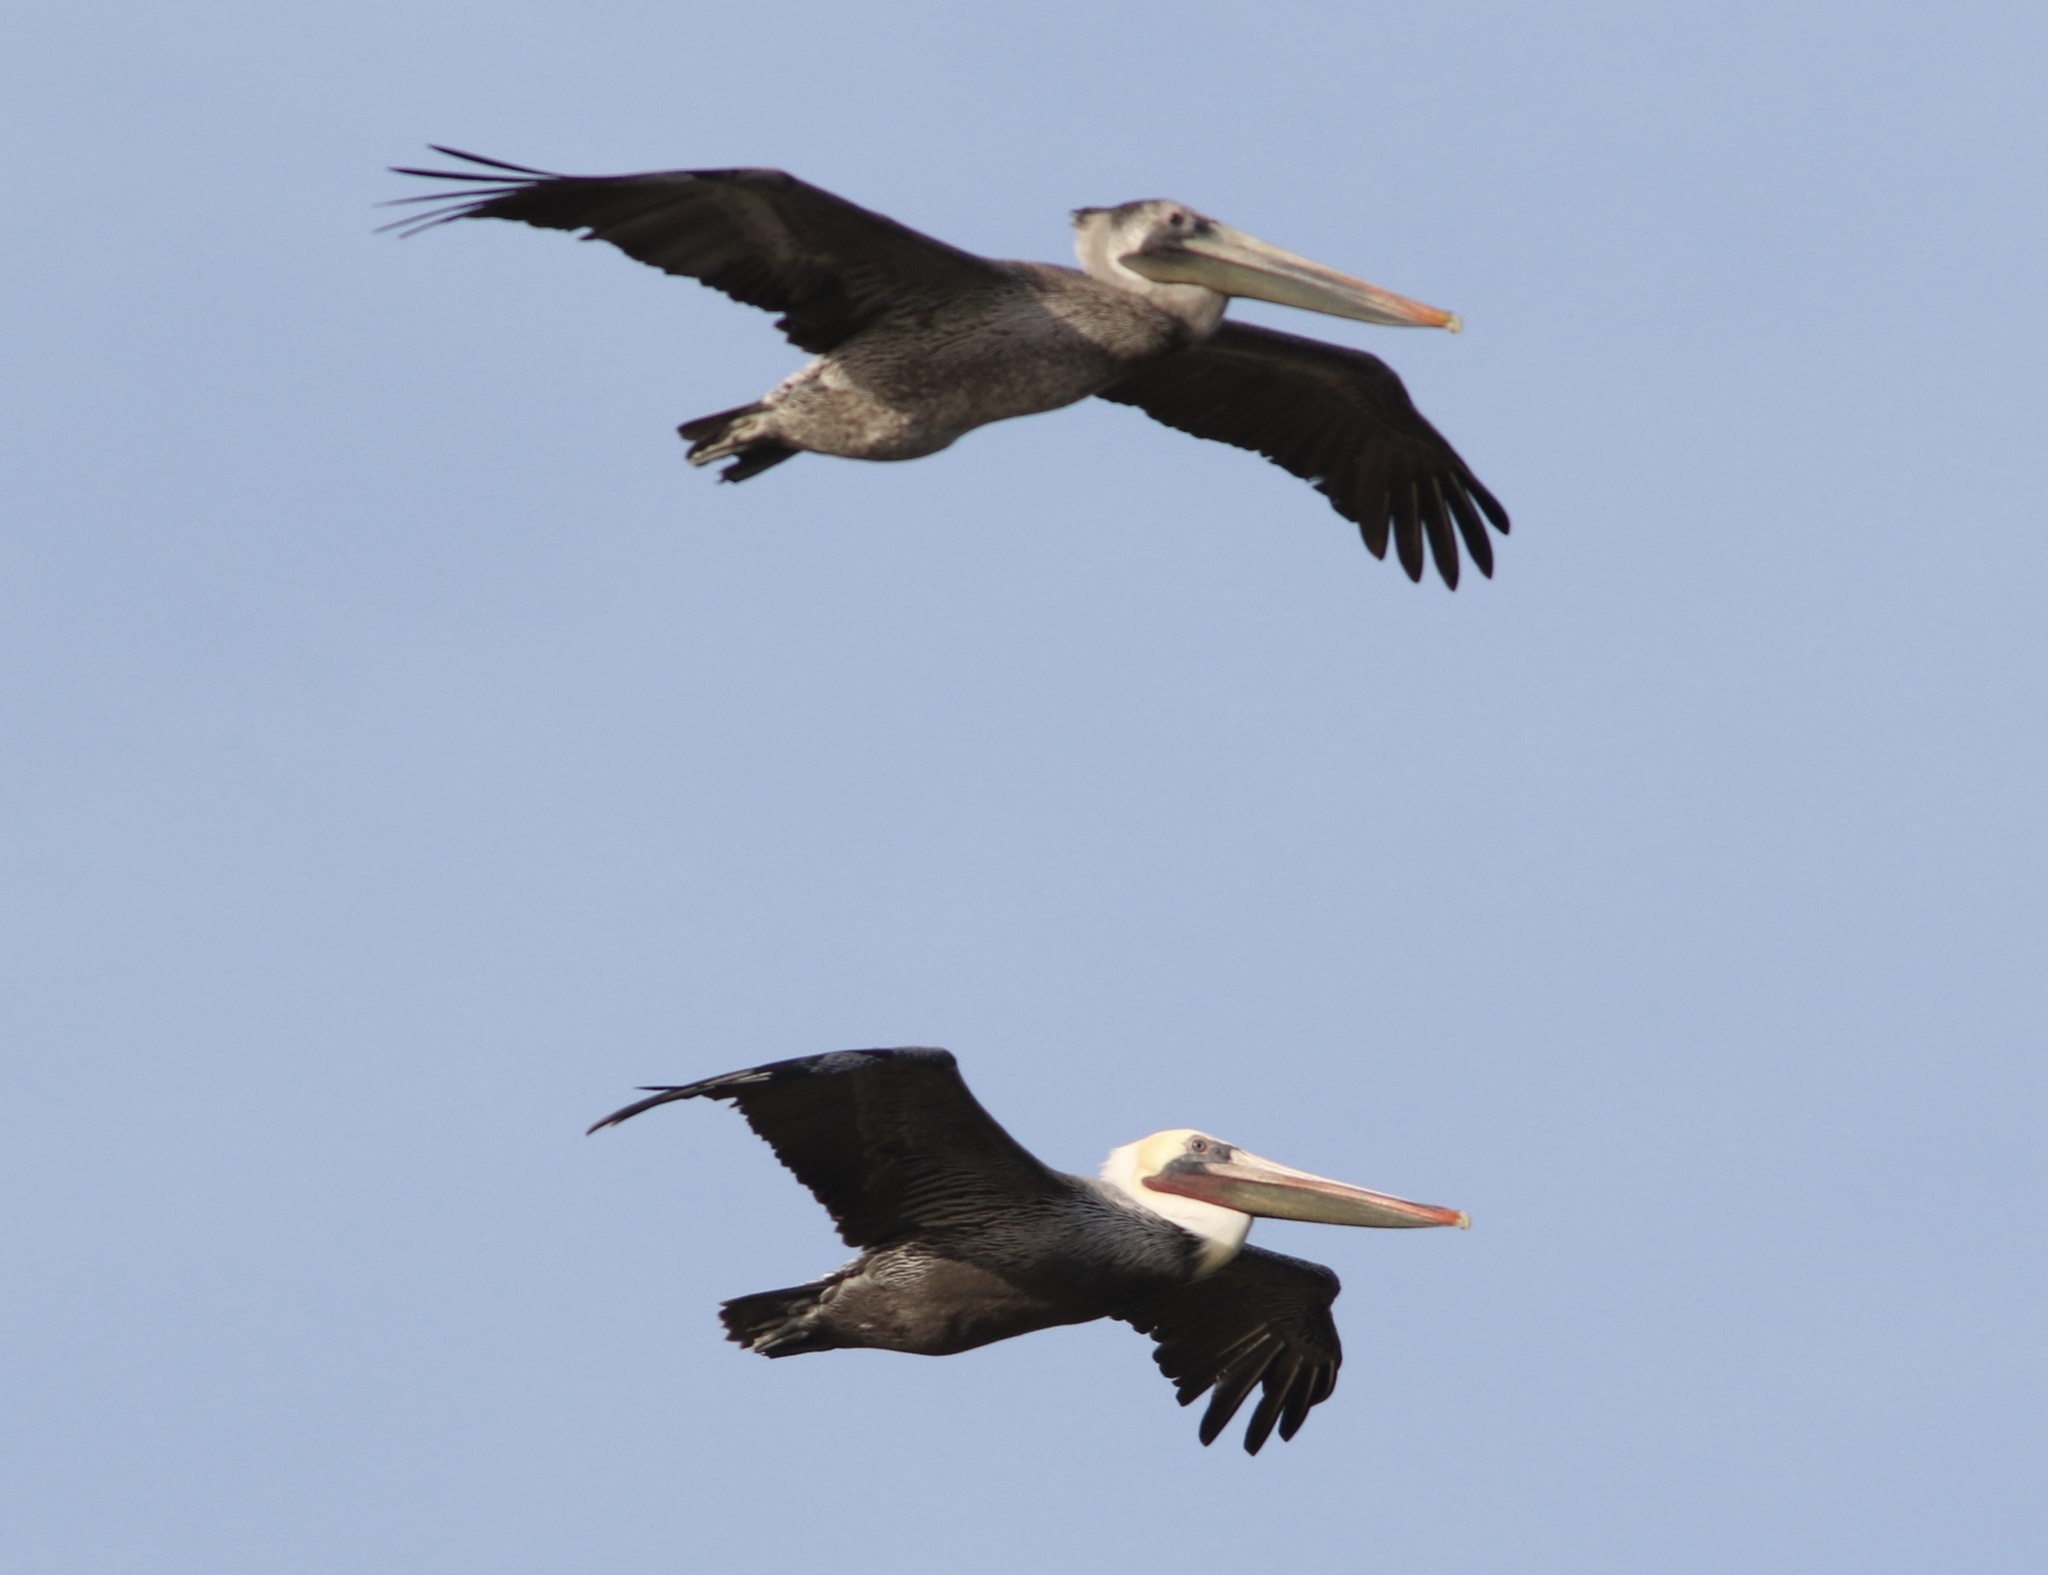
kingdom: Animalia
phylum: Chordata
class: Aves
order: Pelecaniformes
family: Pelecanidae
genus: Pelecanus
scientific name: Pelecanus occidentalis
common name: Brown pelican
